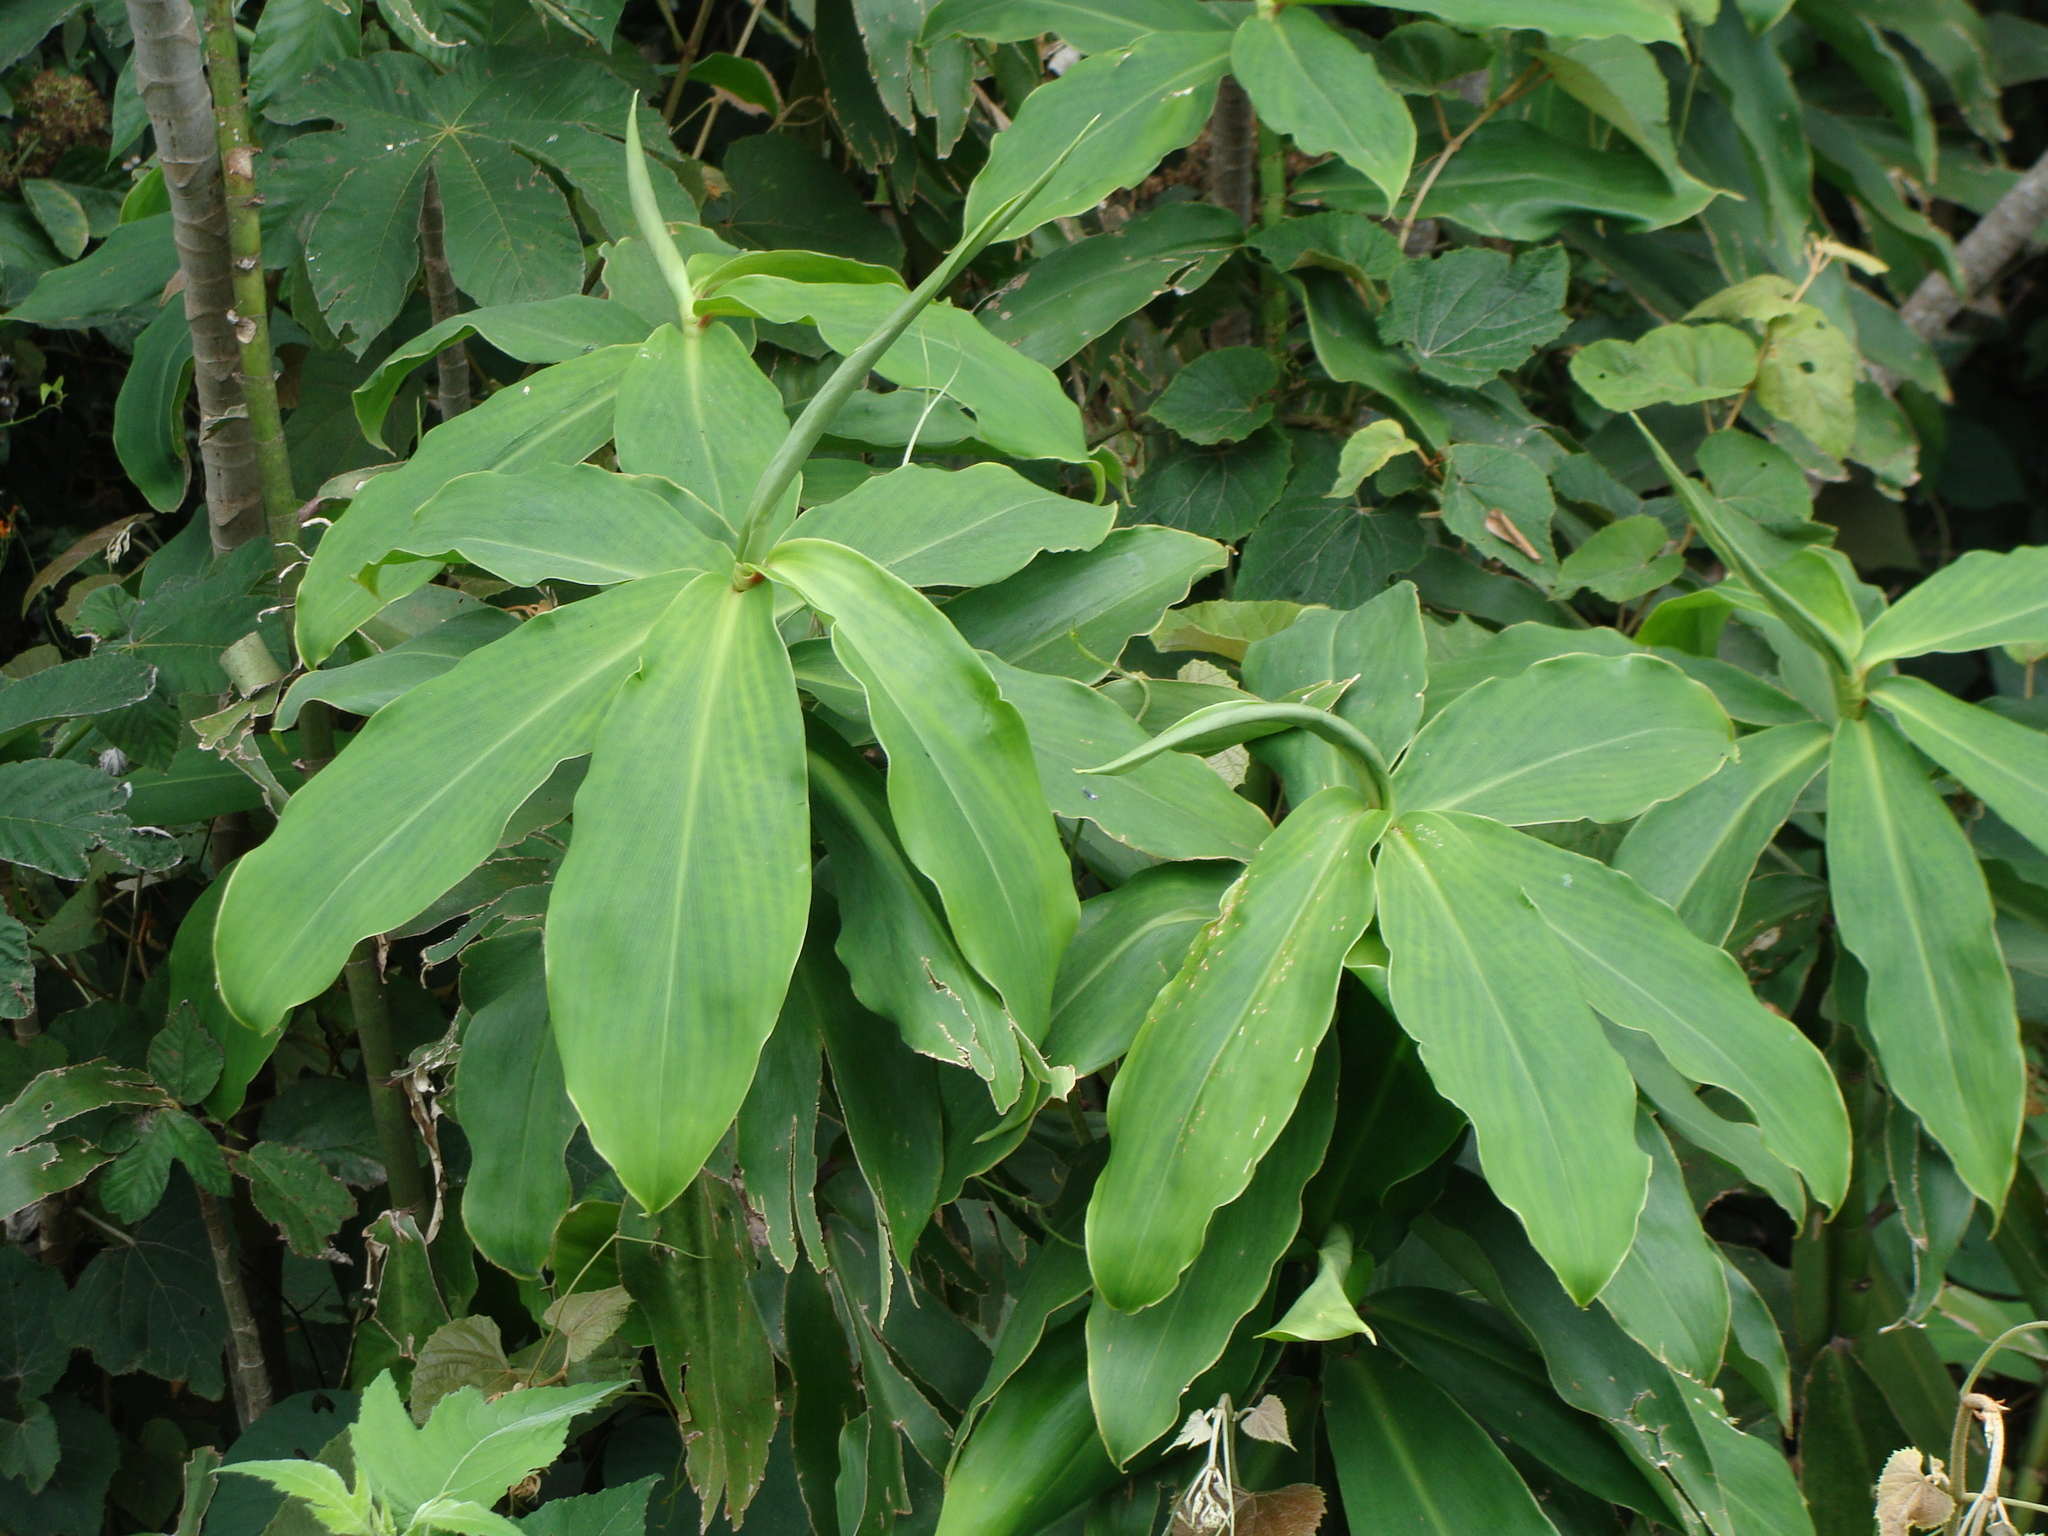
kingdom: Plantae
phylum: Tracheophyta
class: Liliopsida
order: Zingiberales
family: Costaceae
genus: Costus
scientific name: Costus pictus
